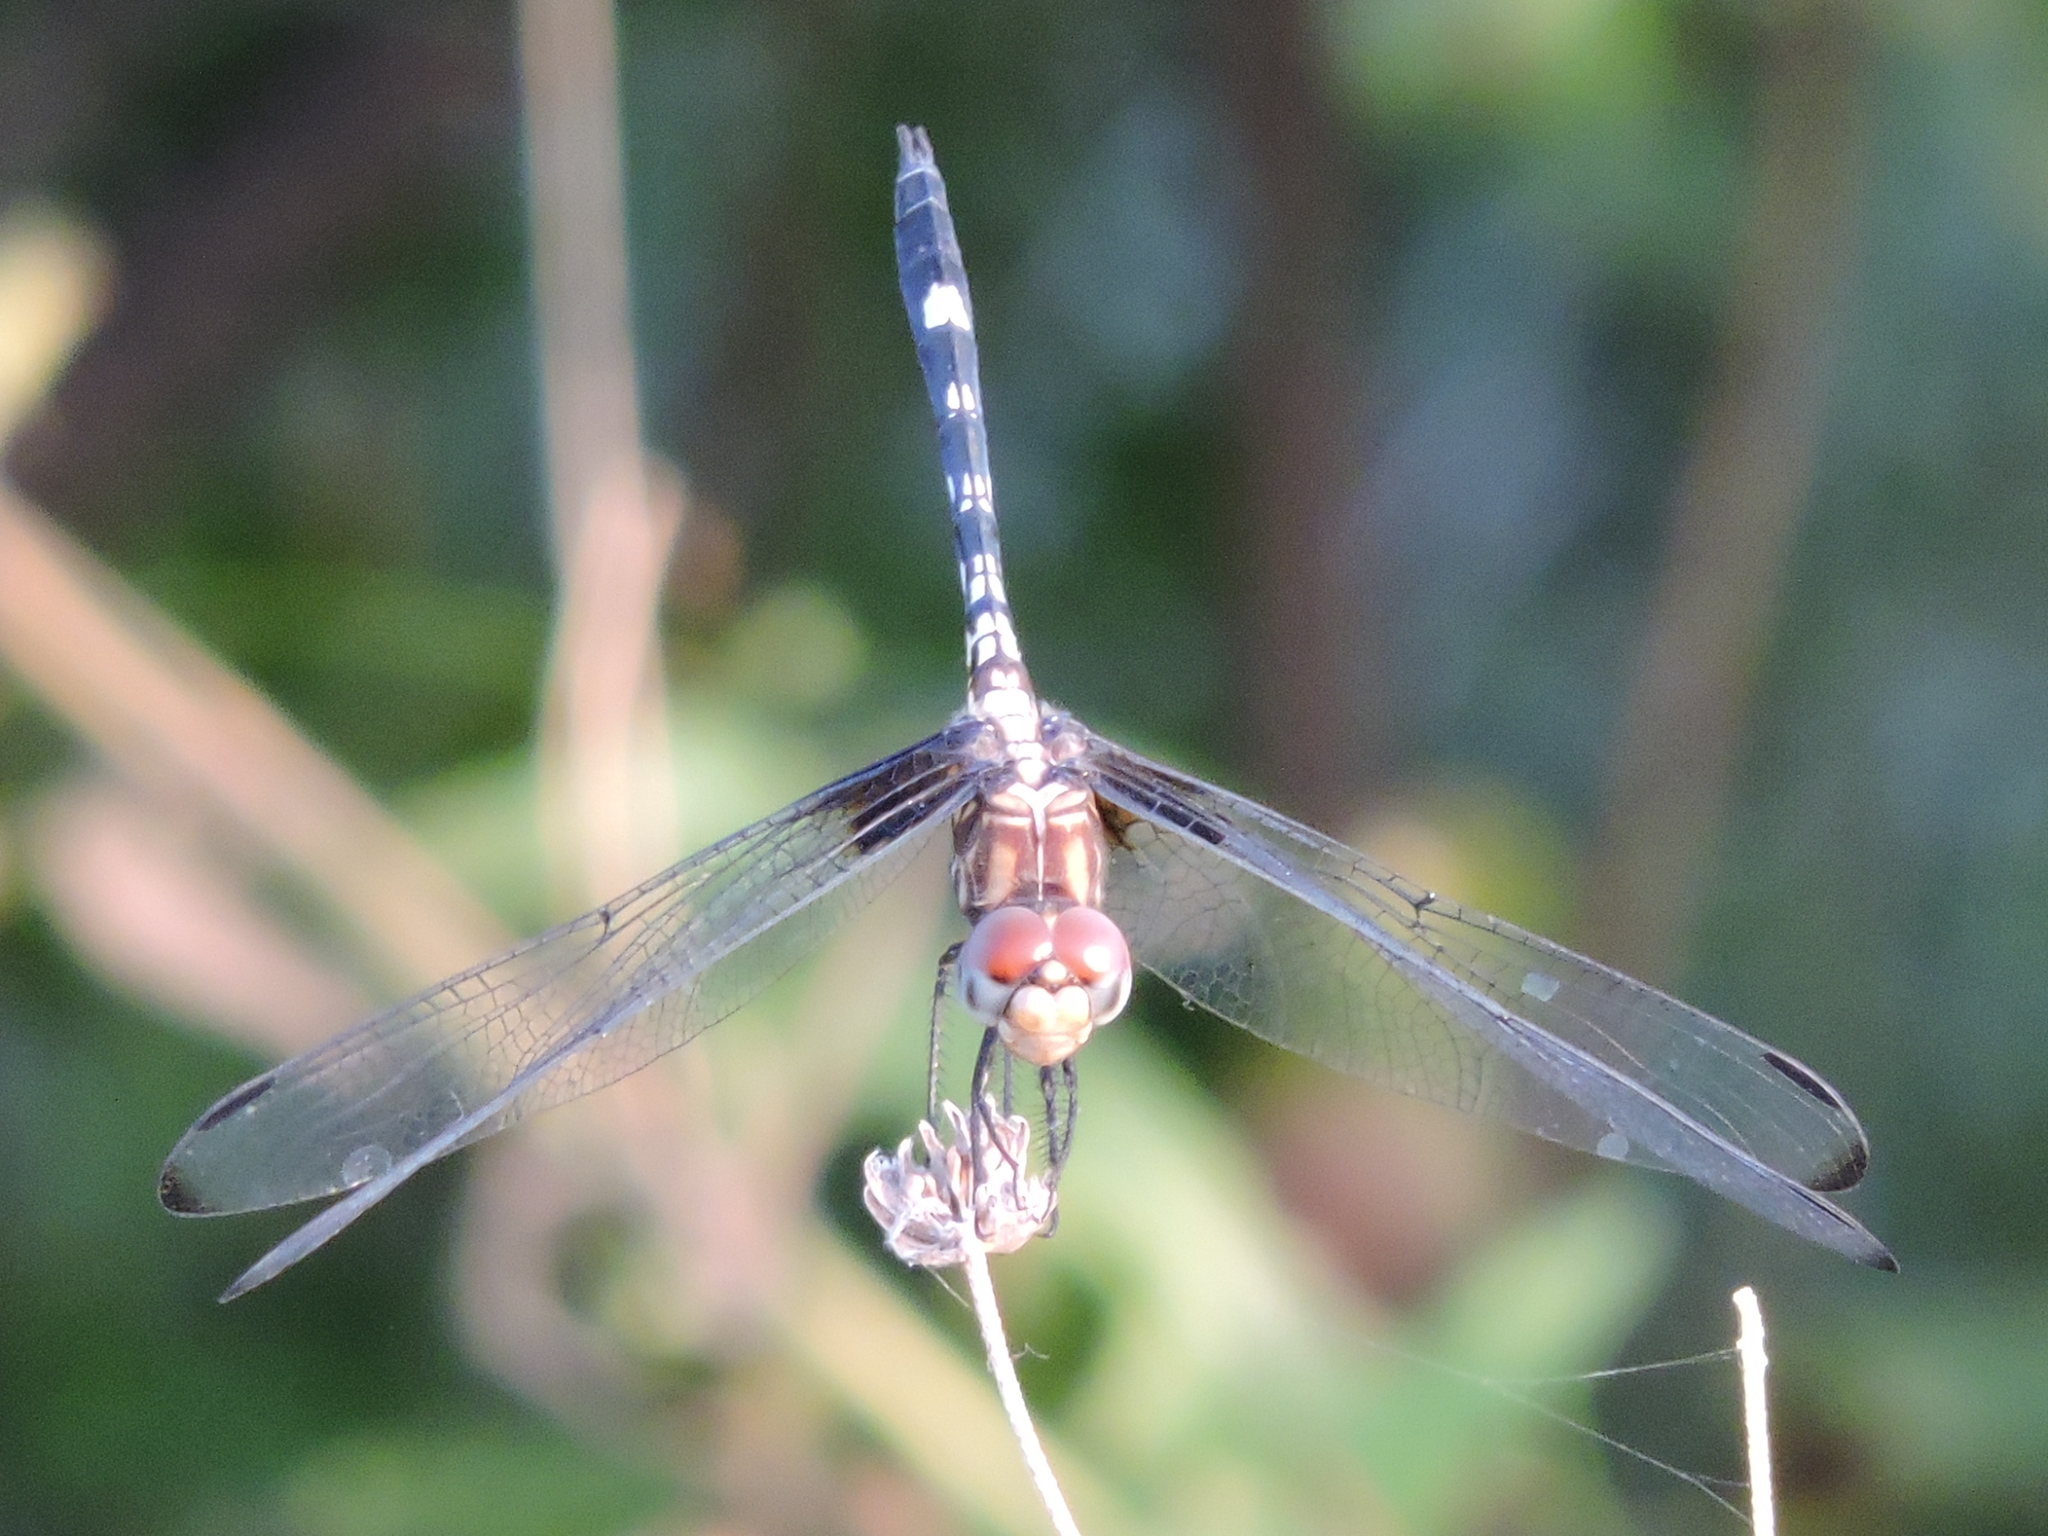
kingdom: Animalia
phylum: Arthropoda
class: Insecta
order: Odonata
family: Libellulidae
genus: Dythemis
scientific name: Dythemis fugax
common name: Checkered setwing
